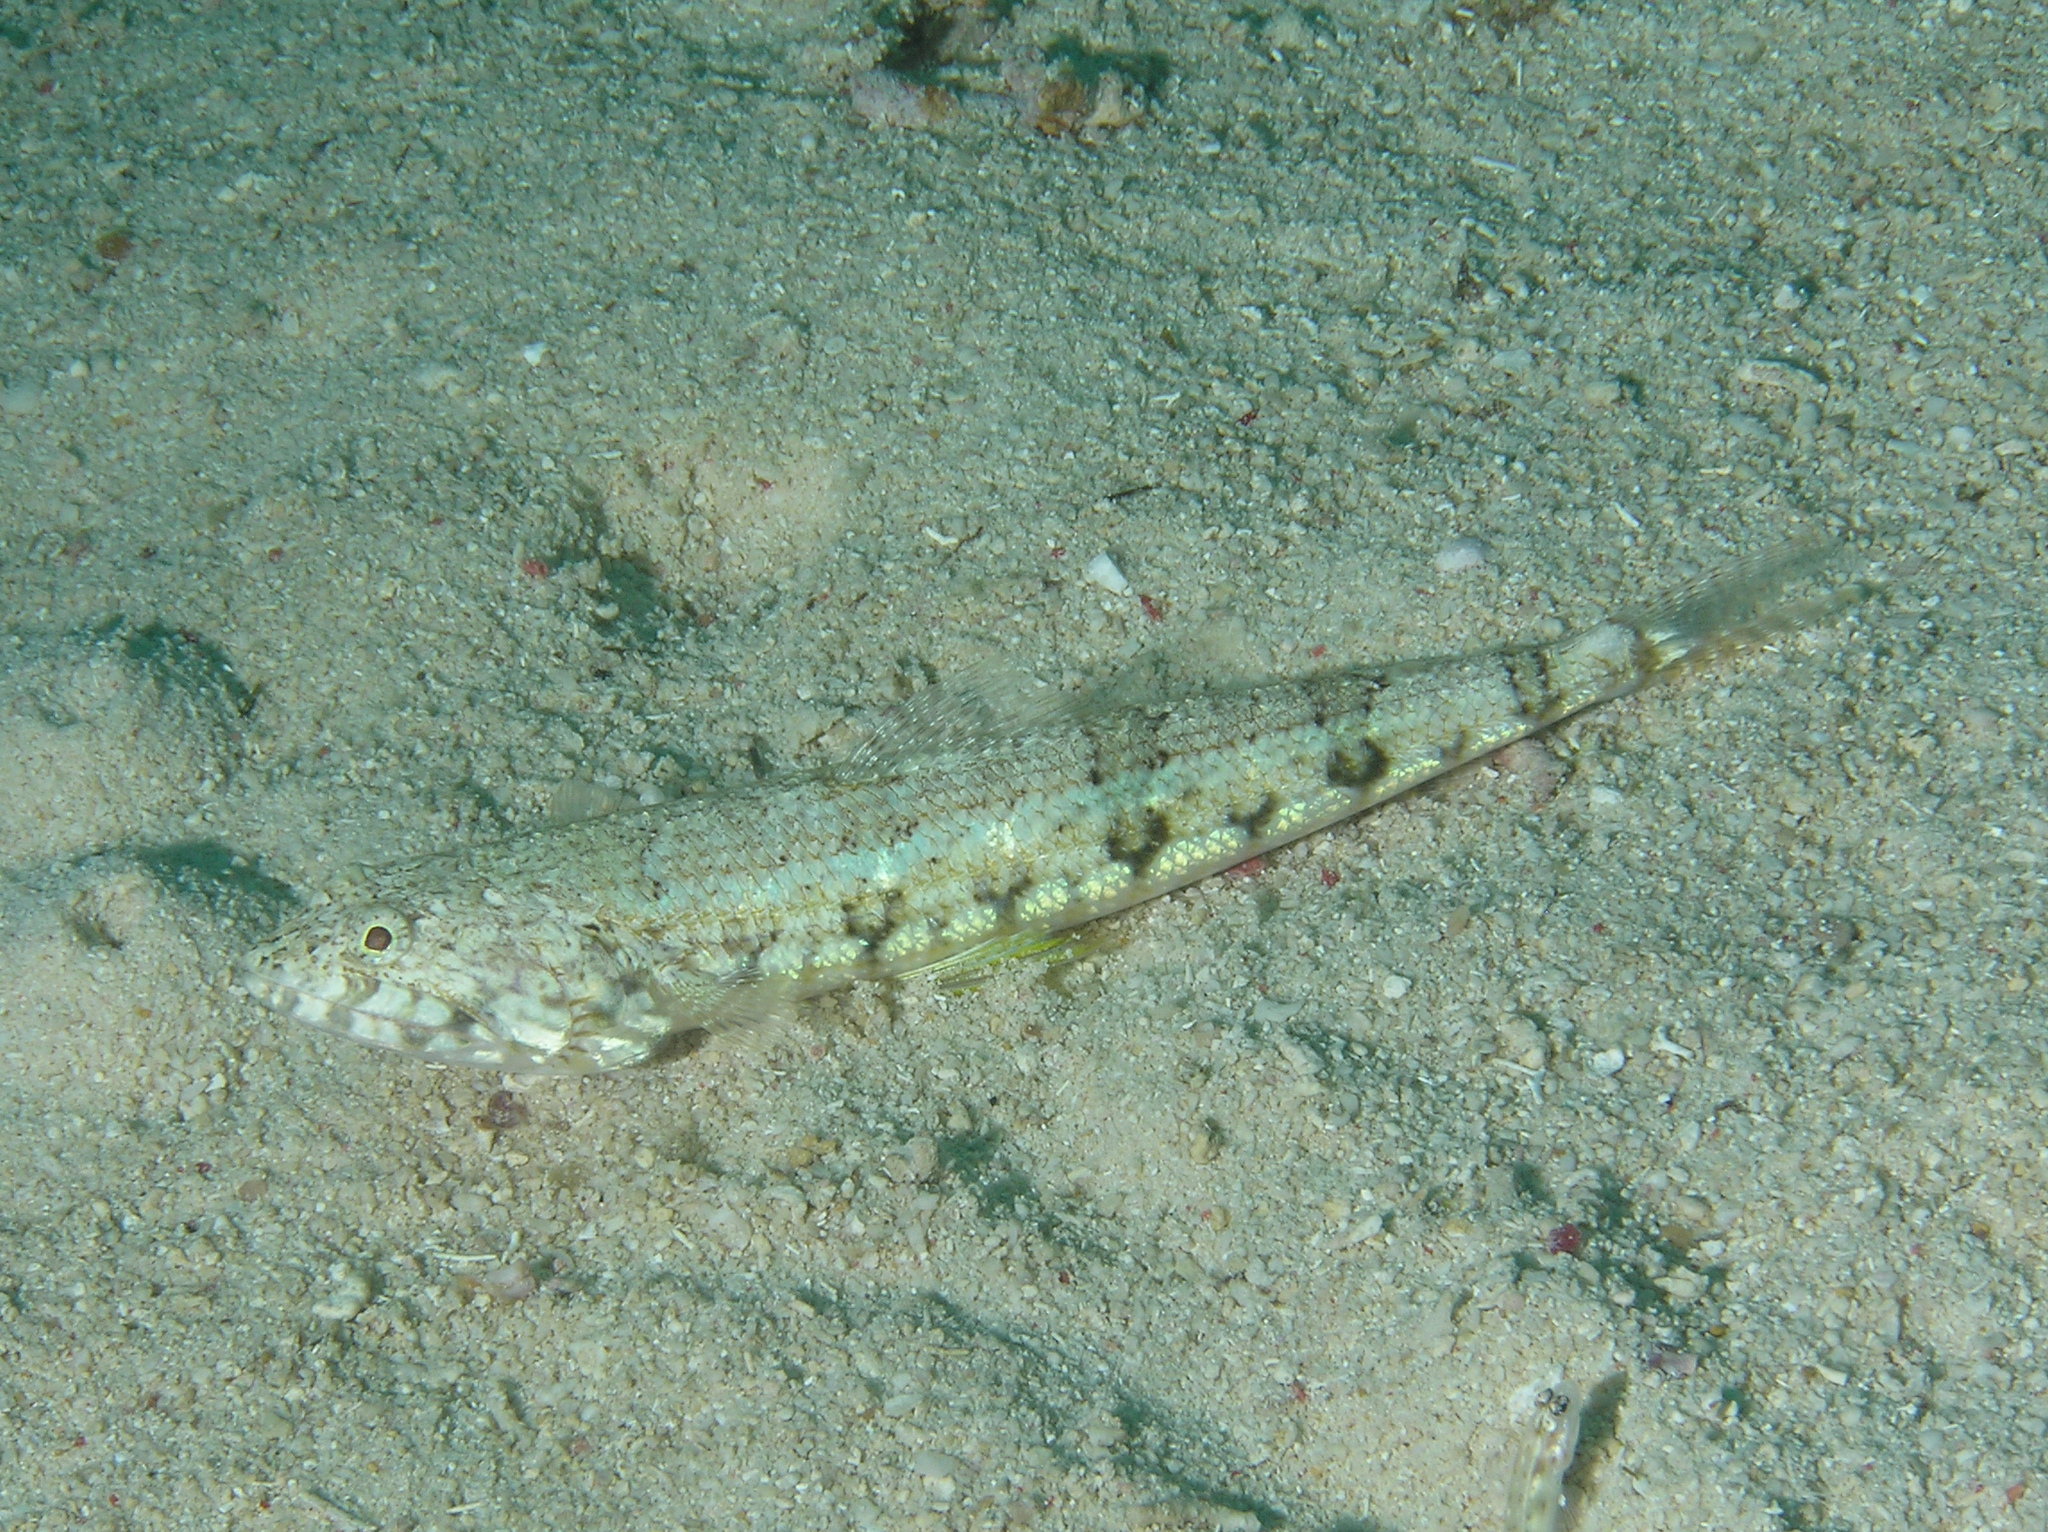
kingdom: Animalia
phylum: Chordata
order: Aulopiformes
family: Synodontidae
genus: Synodus
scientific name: Synodus dermatogenys
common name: Banded lizardfish
